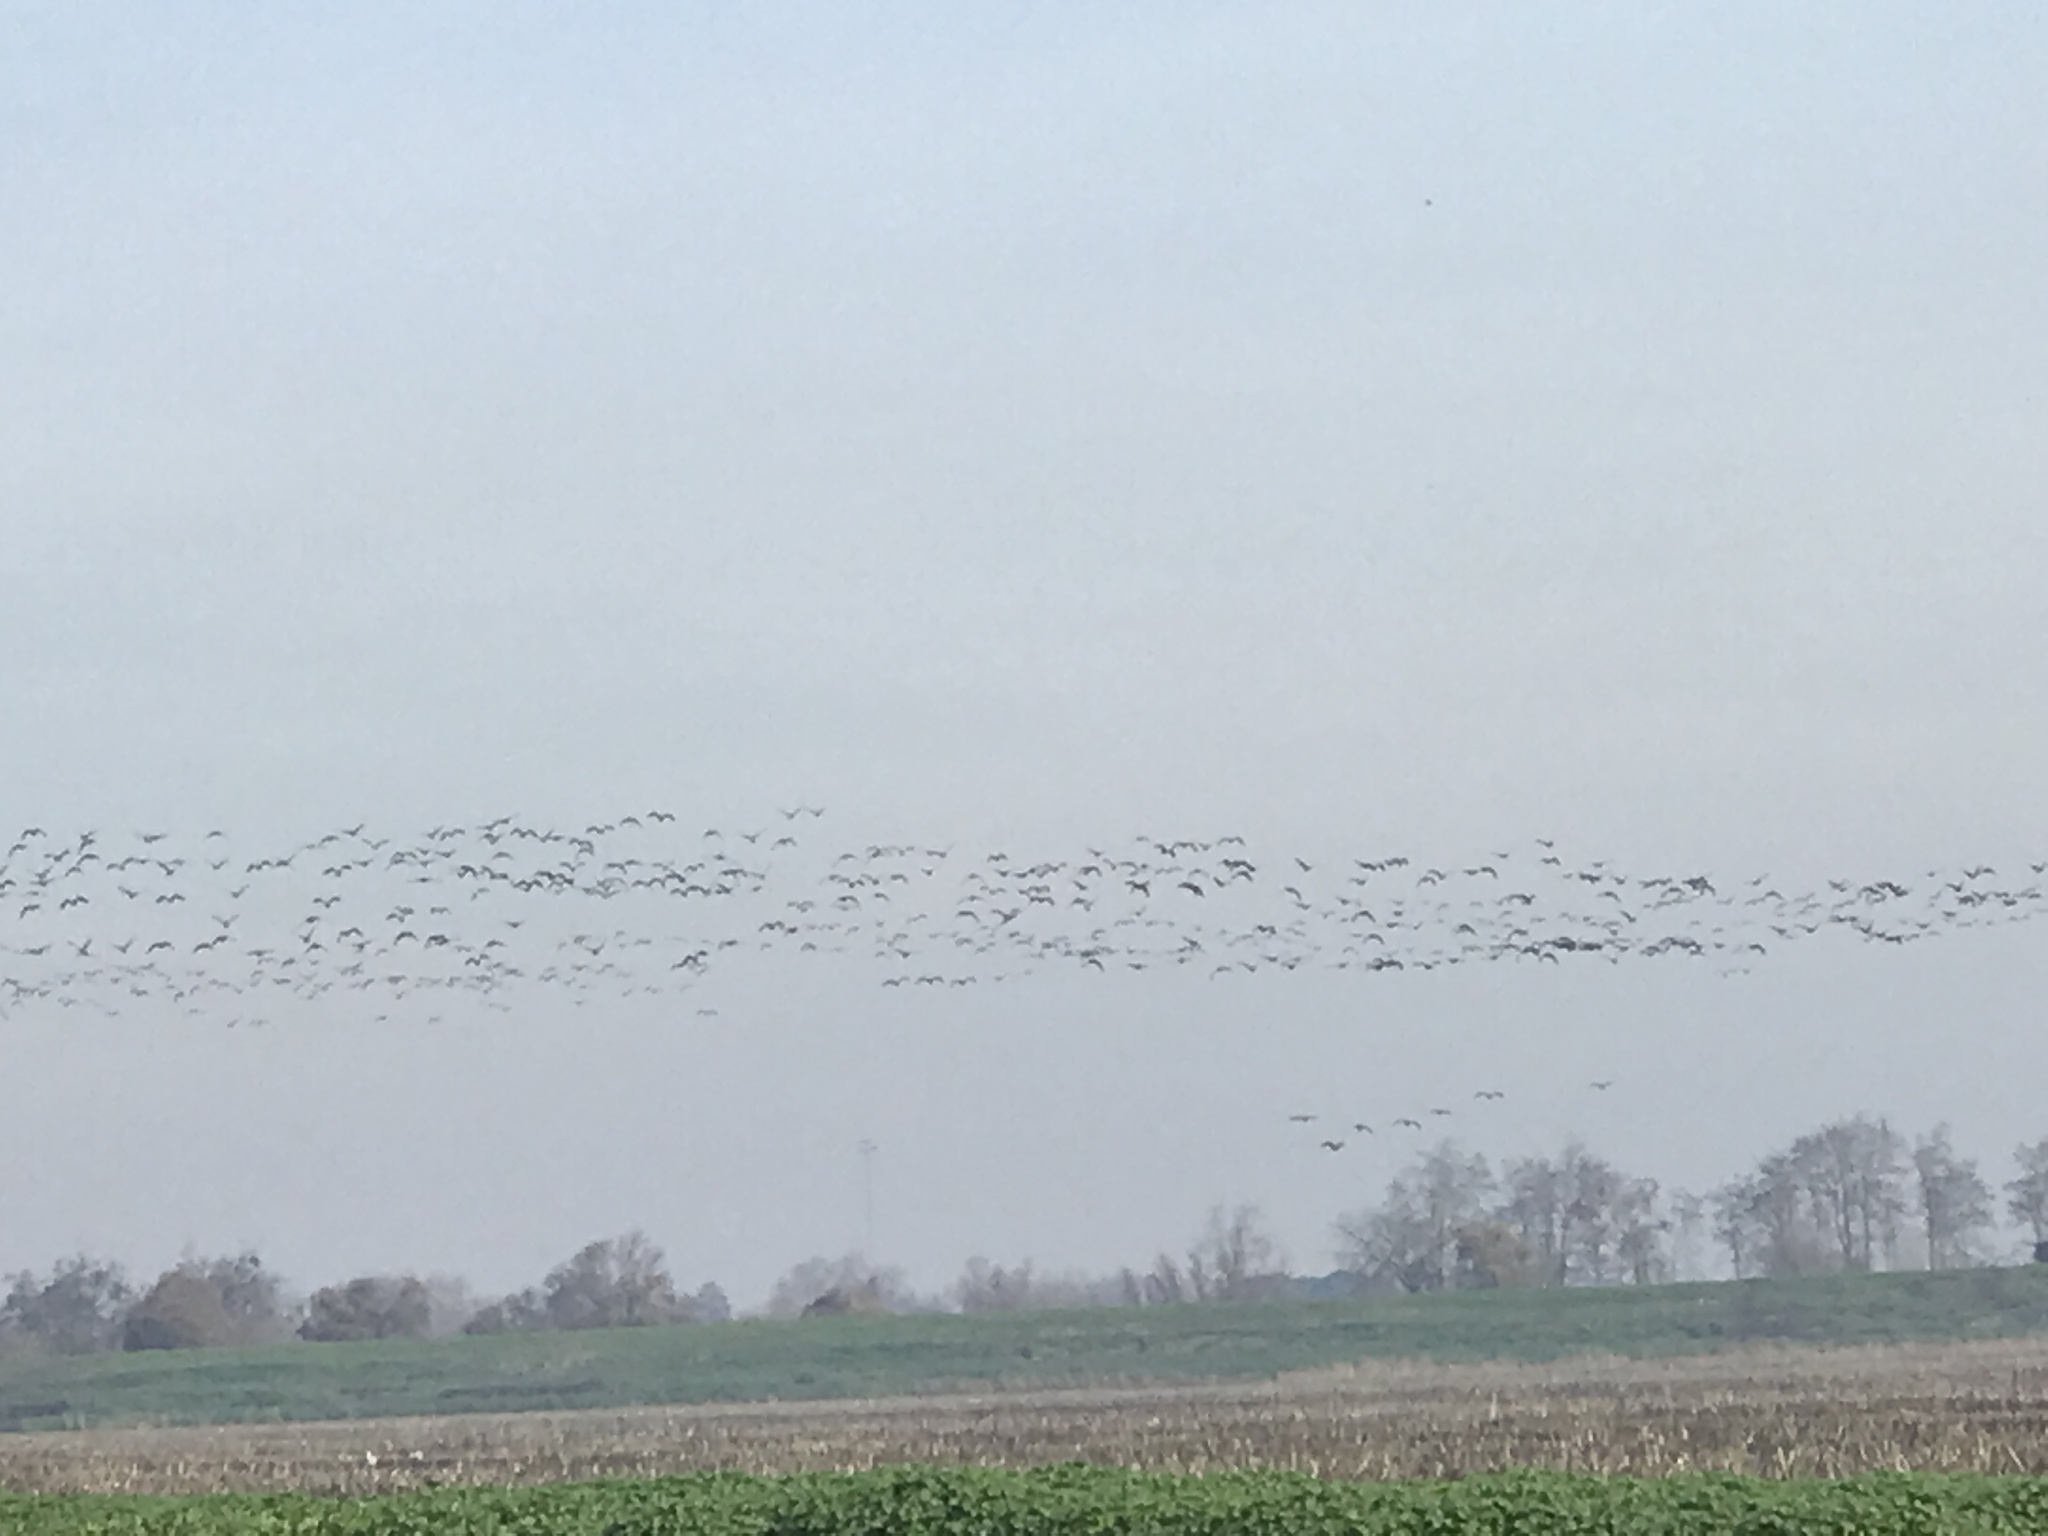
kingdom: Animalia
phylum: Chordata
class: Aves
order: Anseriformes
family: Anatidae
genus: Branta
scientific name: Branta hutchinsii
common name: Cackling goose
